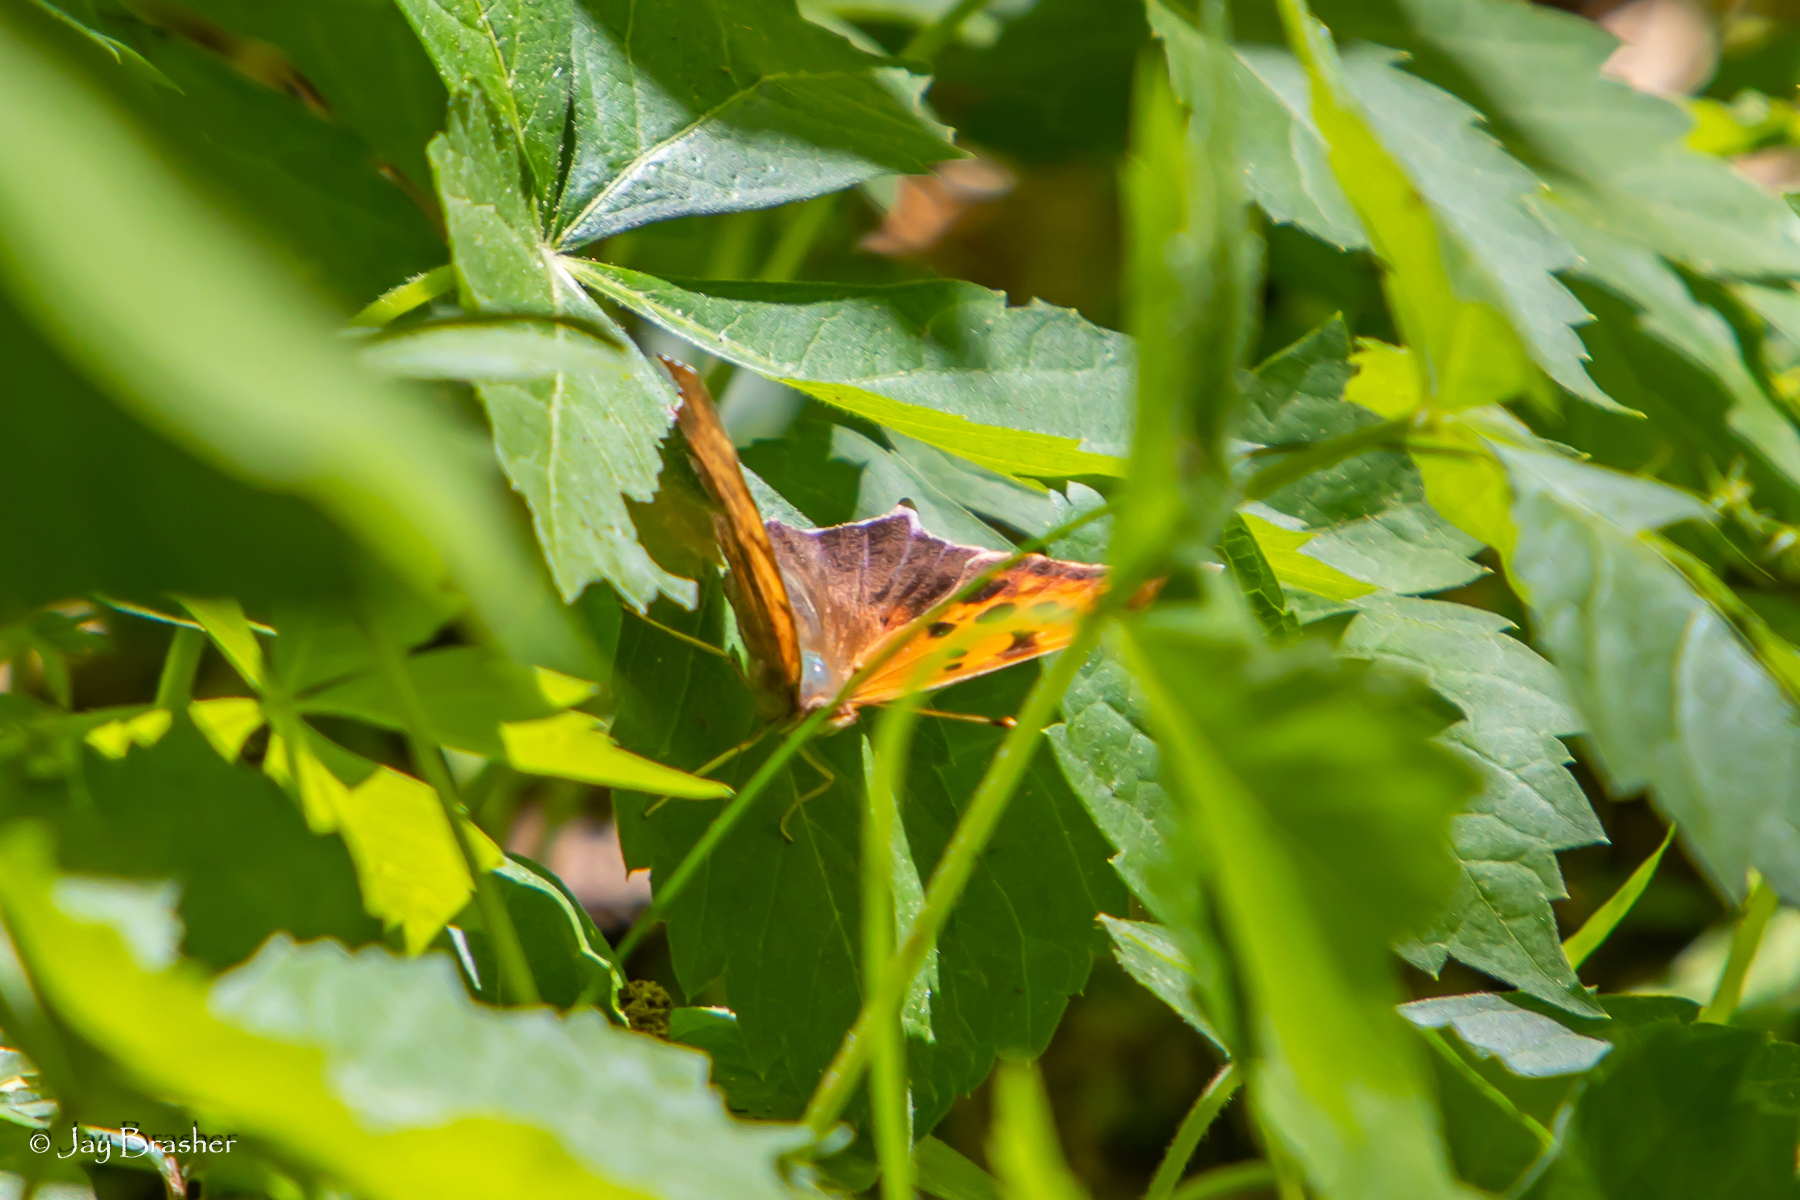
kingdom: Animalia
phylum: Arthropoda
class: Insecta
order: Lepidoptera
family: Nymphalidae
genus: Polygonia
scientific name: Polygonia interrogationis
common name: Question mark
